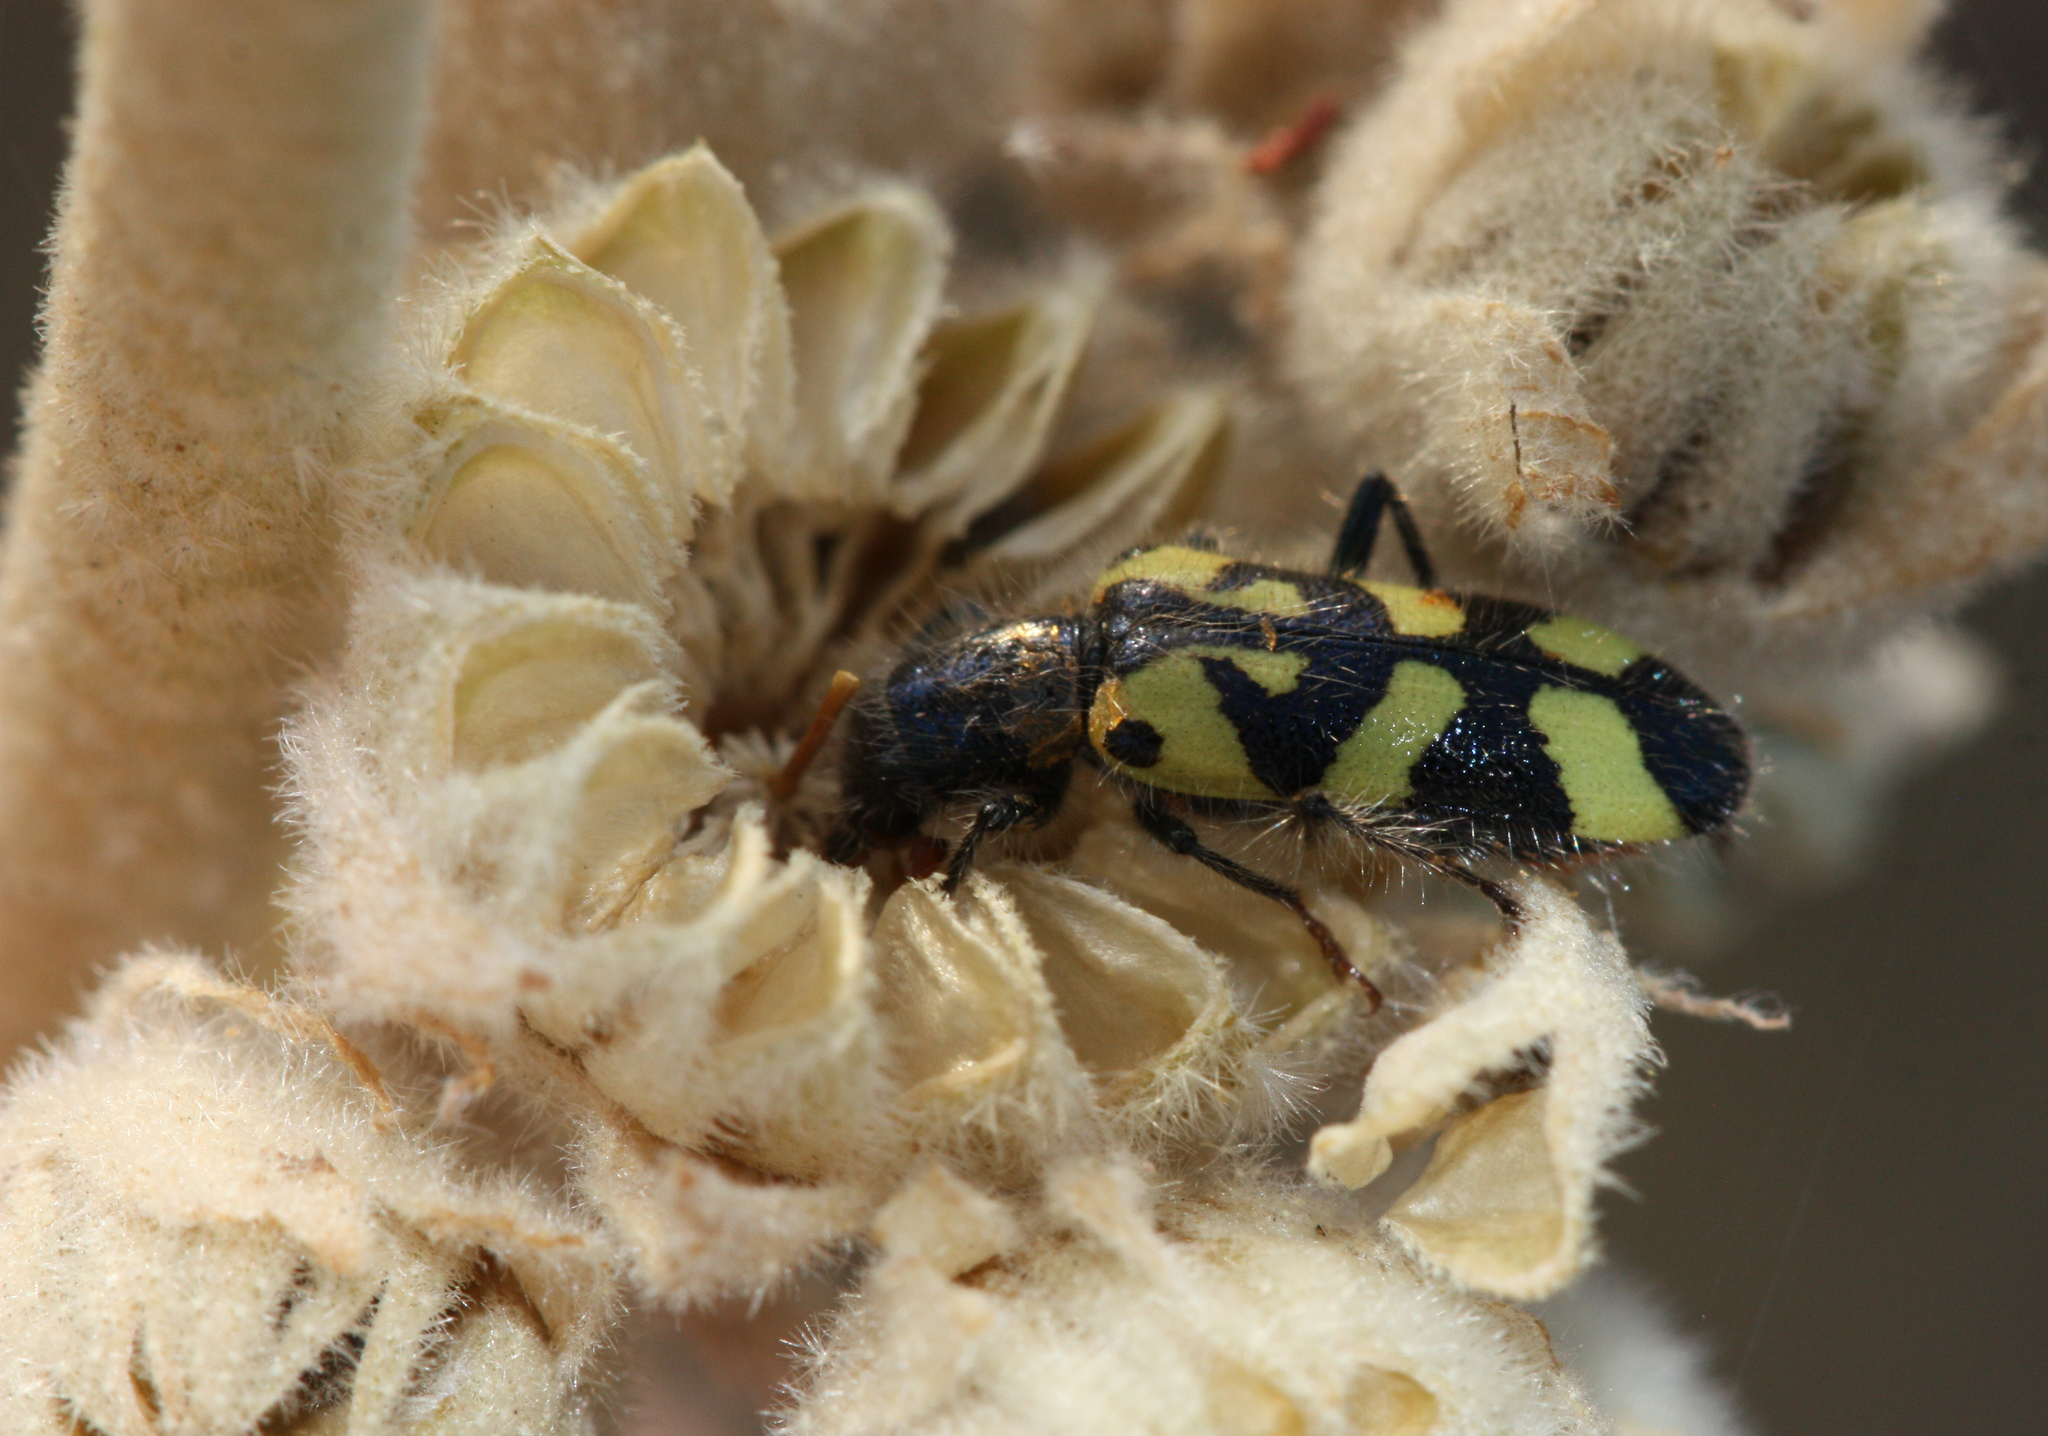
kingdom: Animalia
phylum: Arthropoda
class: Insecta
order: Coleoptera
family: Cleridae
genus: Trichodes
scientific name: Trichodes ornatus
